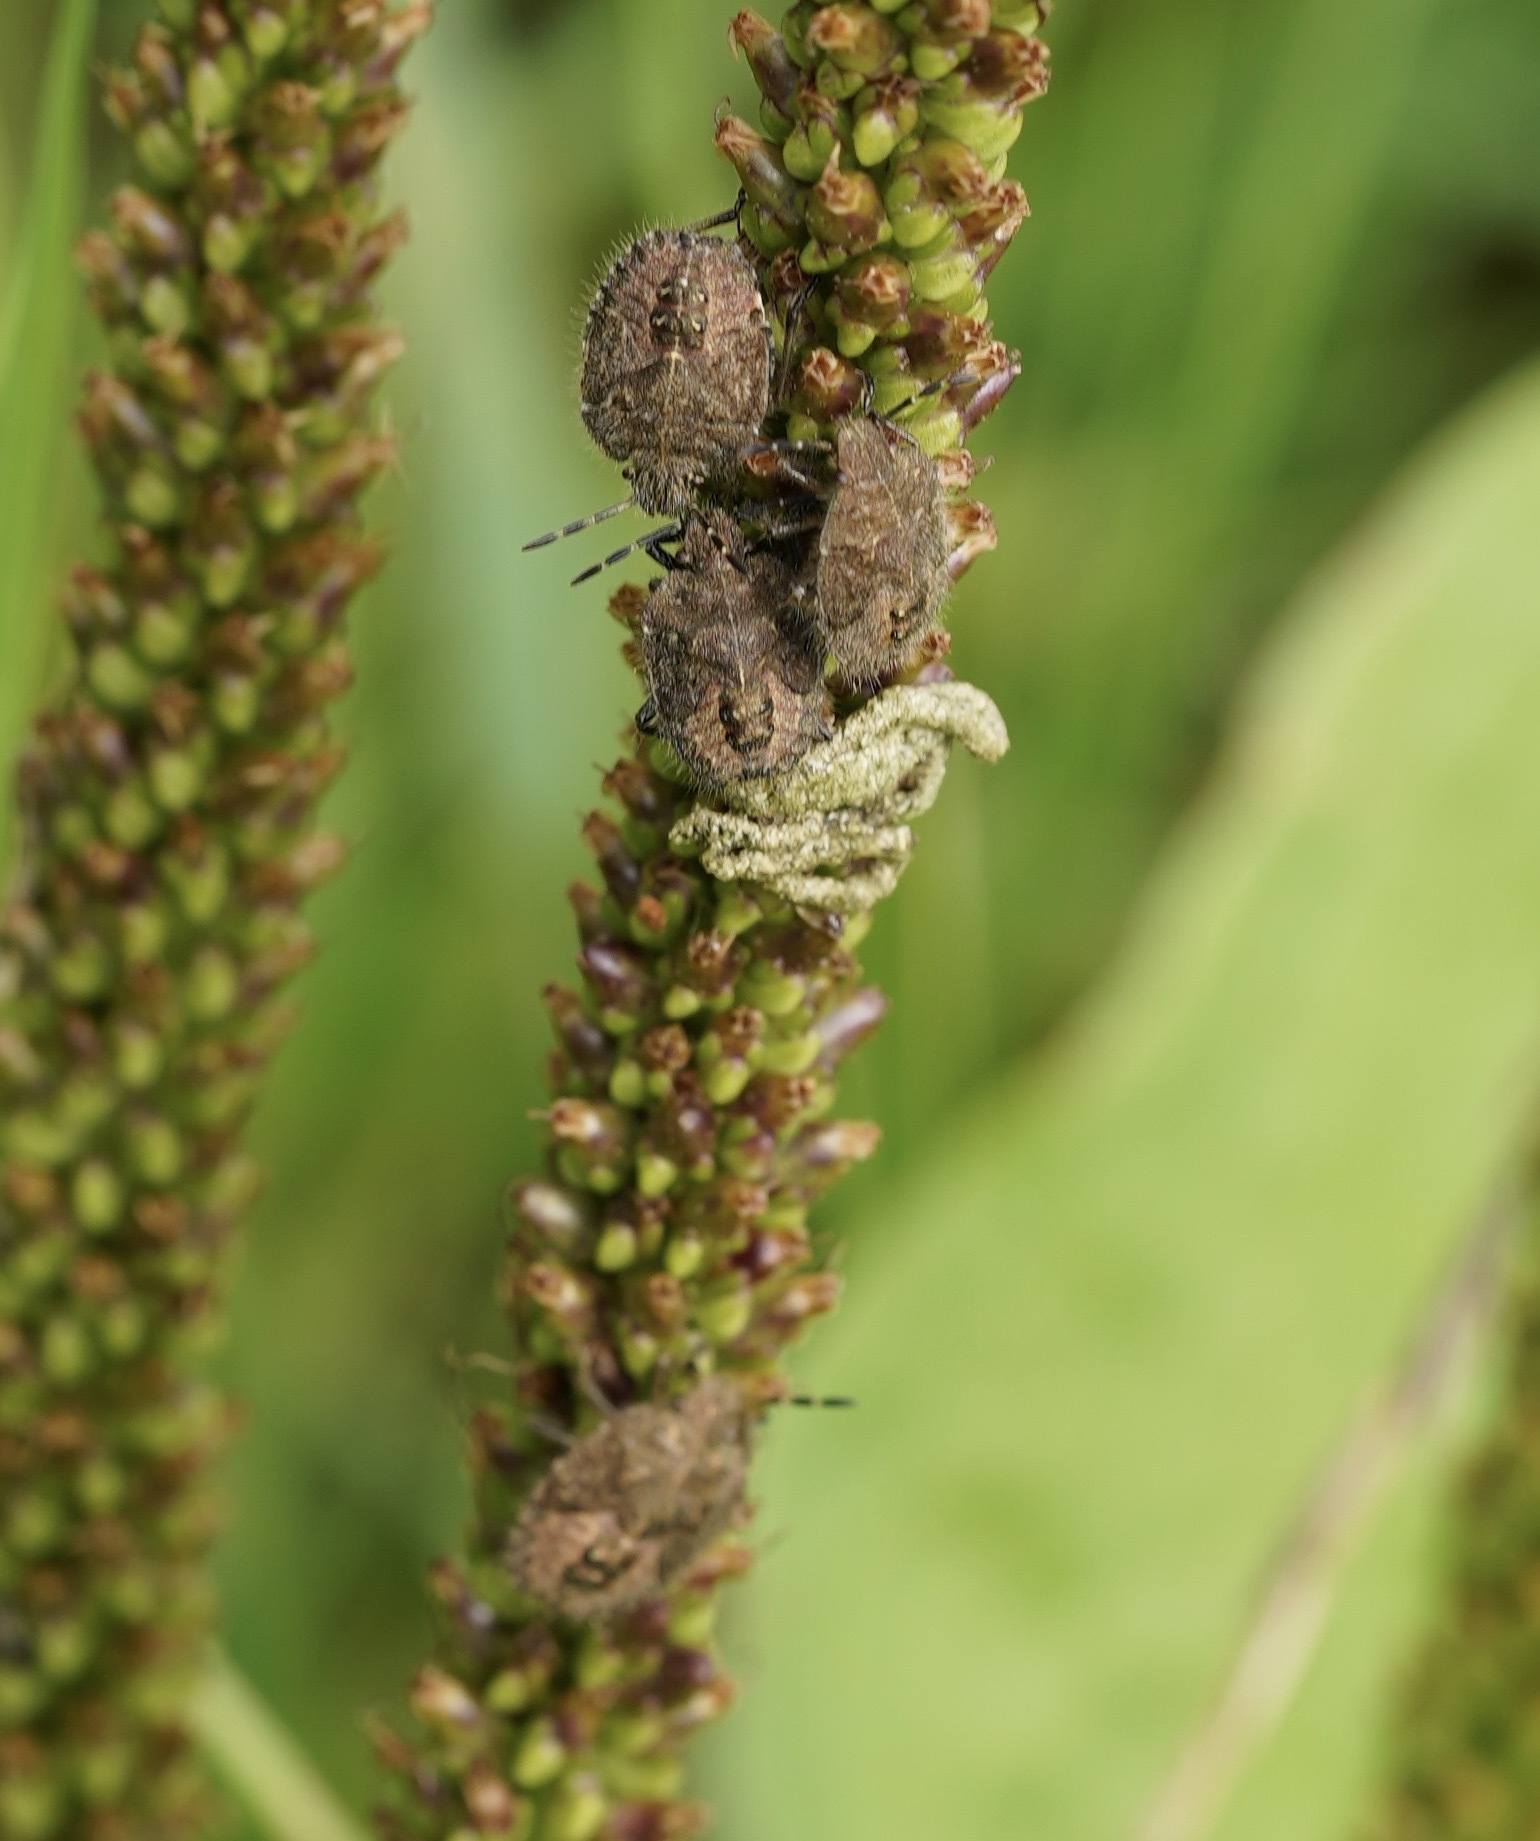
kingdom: Animalia
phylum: Arthropoda
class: Insecta
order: Hemiptera
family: Pentatomidae
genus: Dolycoris
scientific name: Dolycoris baccarum
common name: Sloe bug
